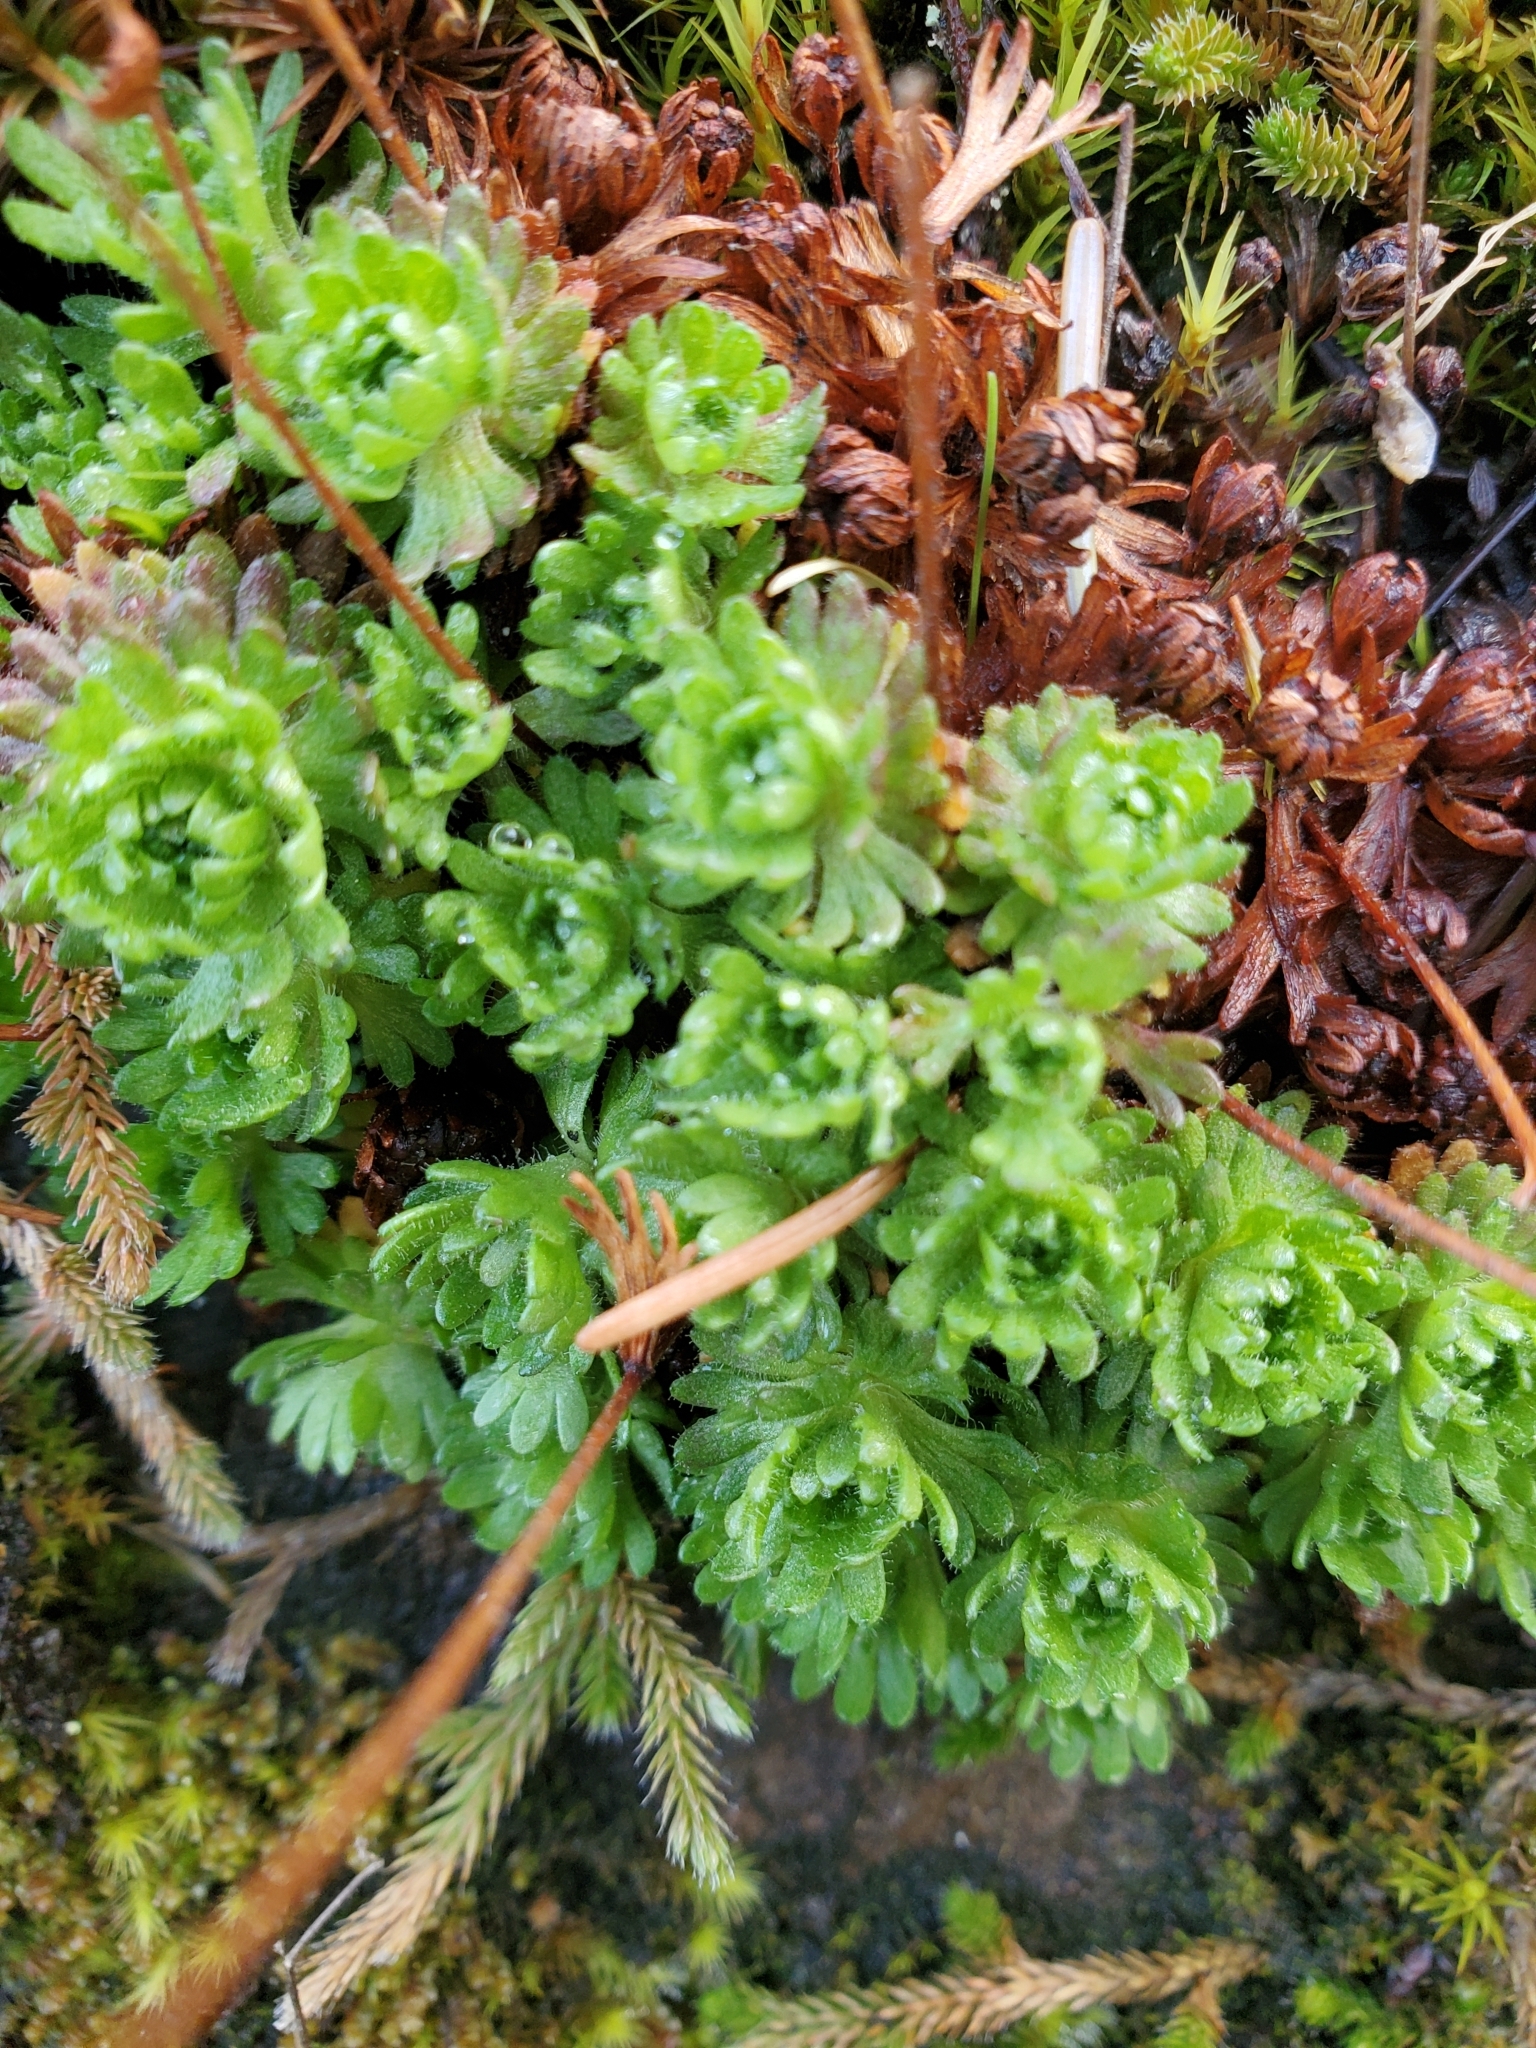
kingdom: Plantae
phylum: Tracheophyta
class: Magnoliopsida
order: Saxifragales
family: Saxifragaceae
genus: Saxifraga
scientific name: Saxifraga cespitosa
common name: Tufted saxifrage
